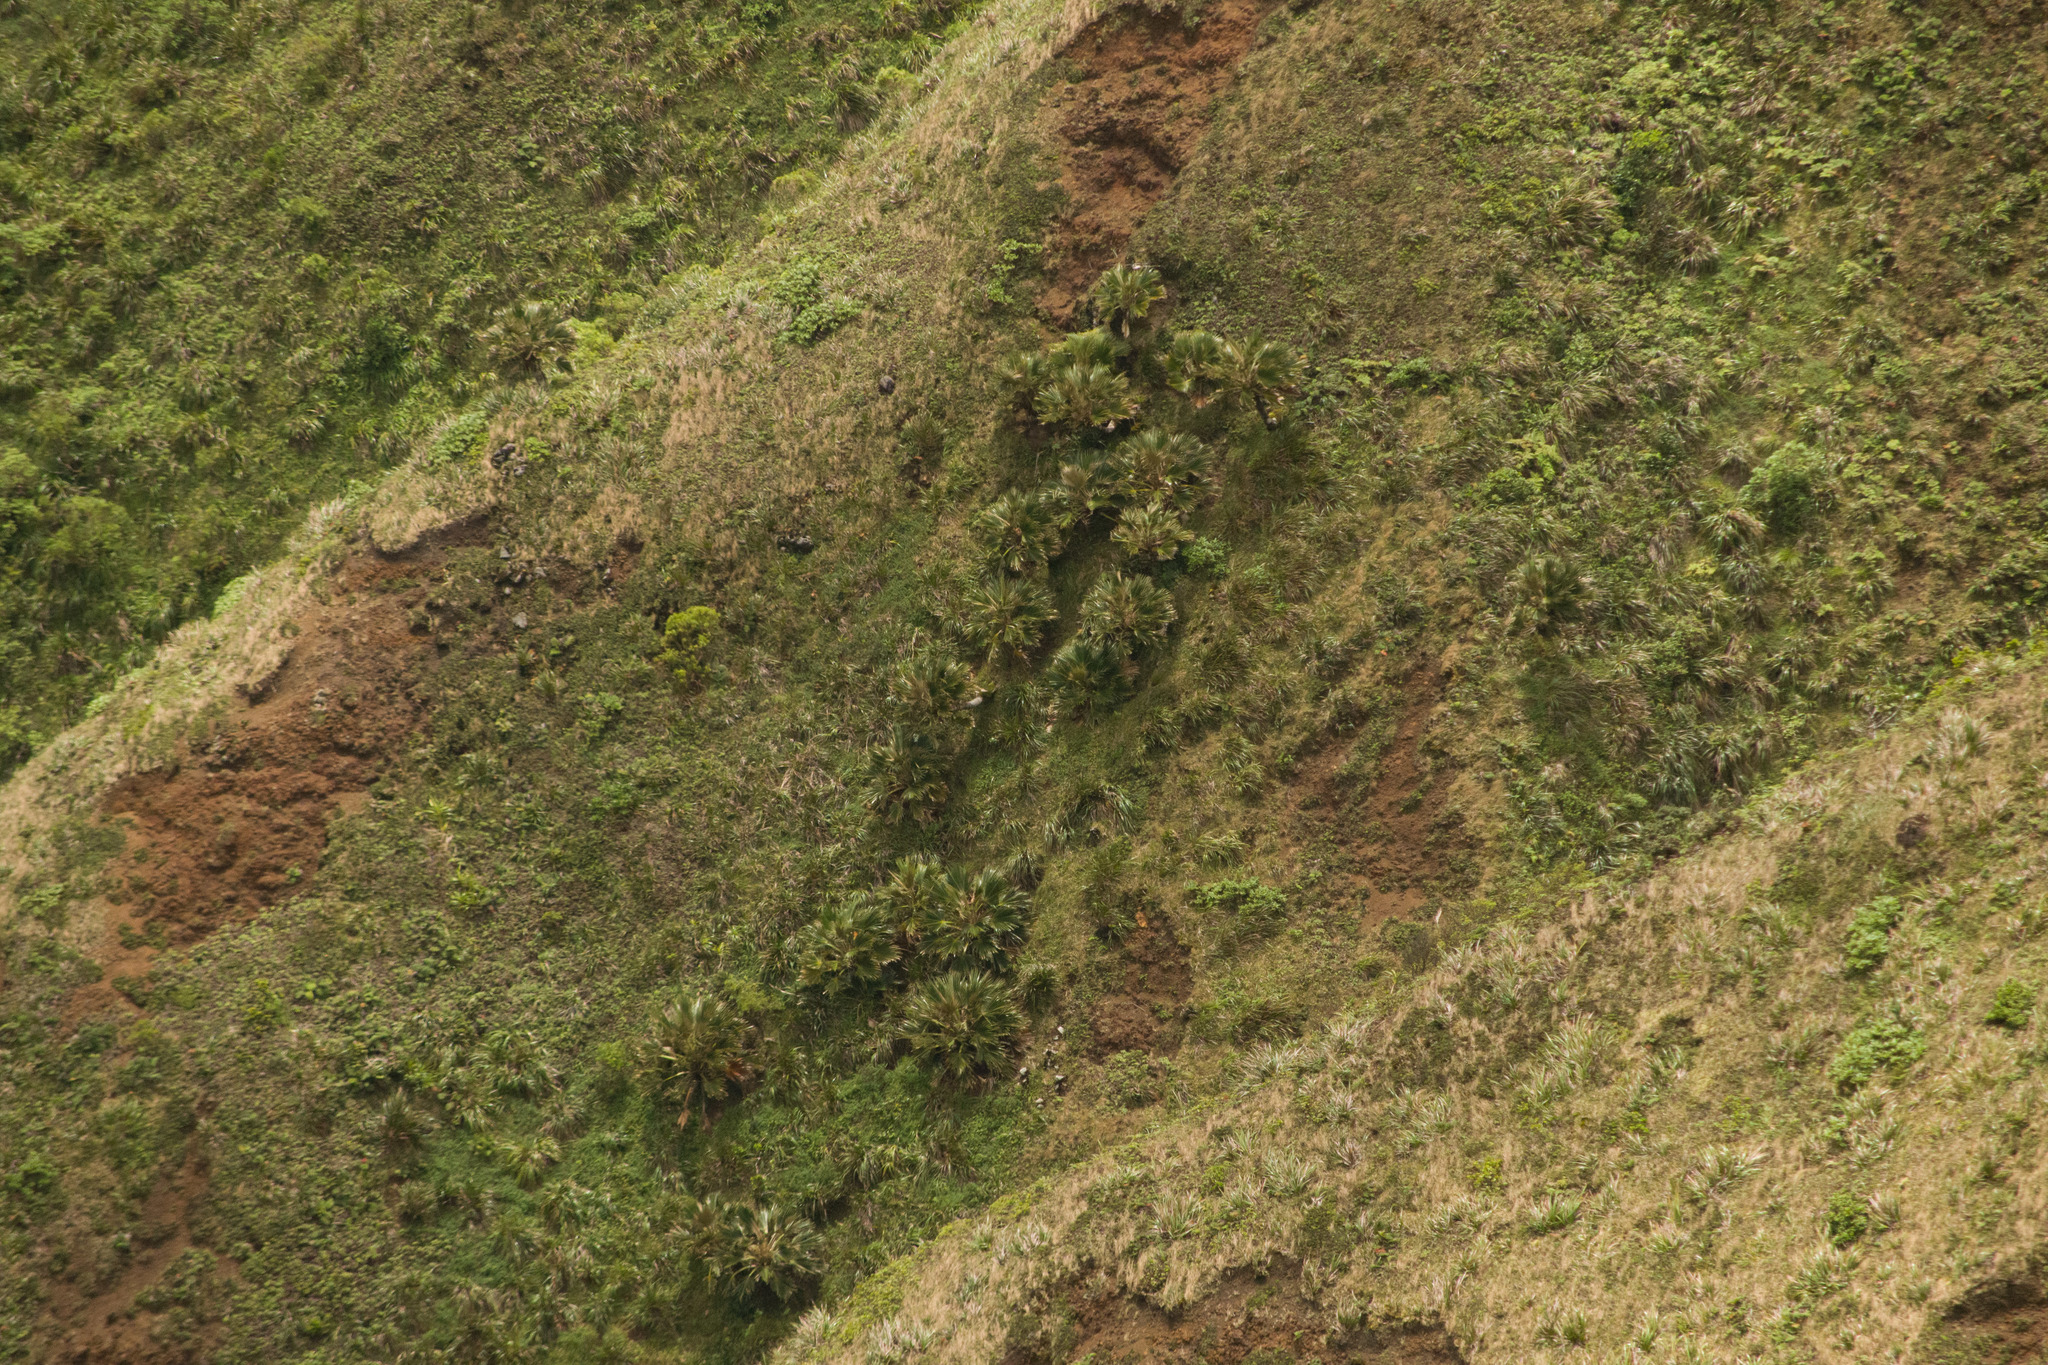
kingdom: Plantae
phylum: Tracheophyta
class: Liliopsida
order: Arecales
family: Arecaceae
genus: Pritchardia
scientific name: Pritchardia martii
